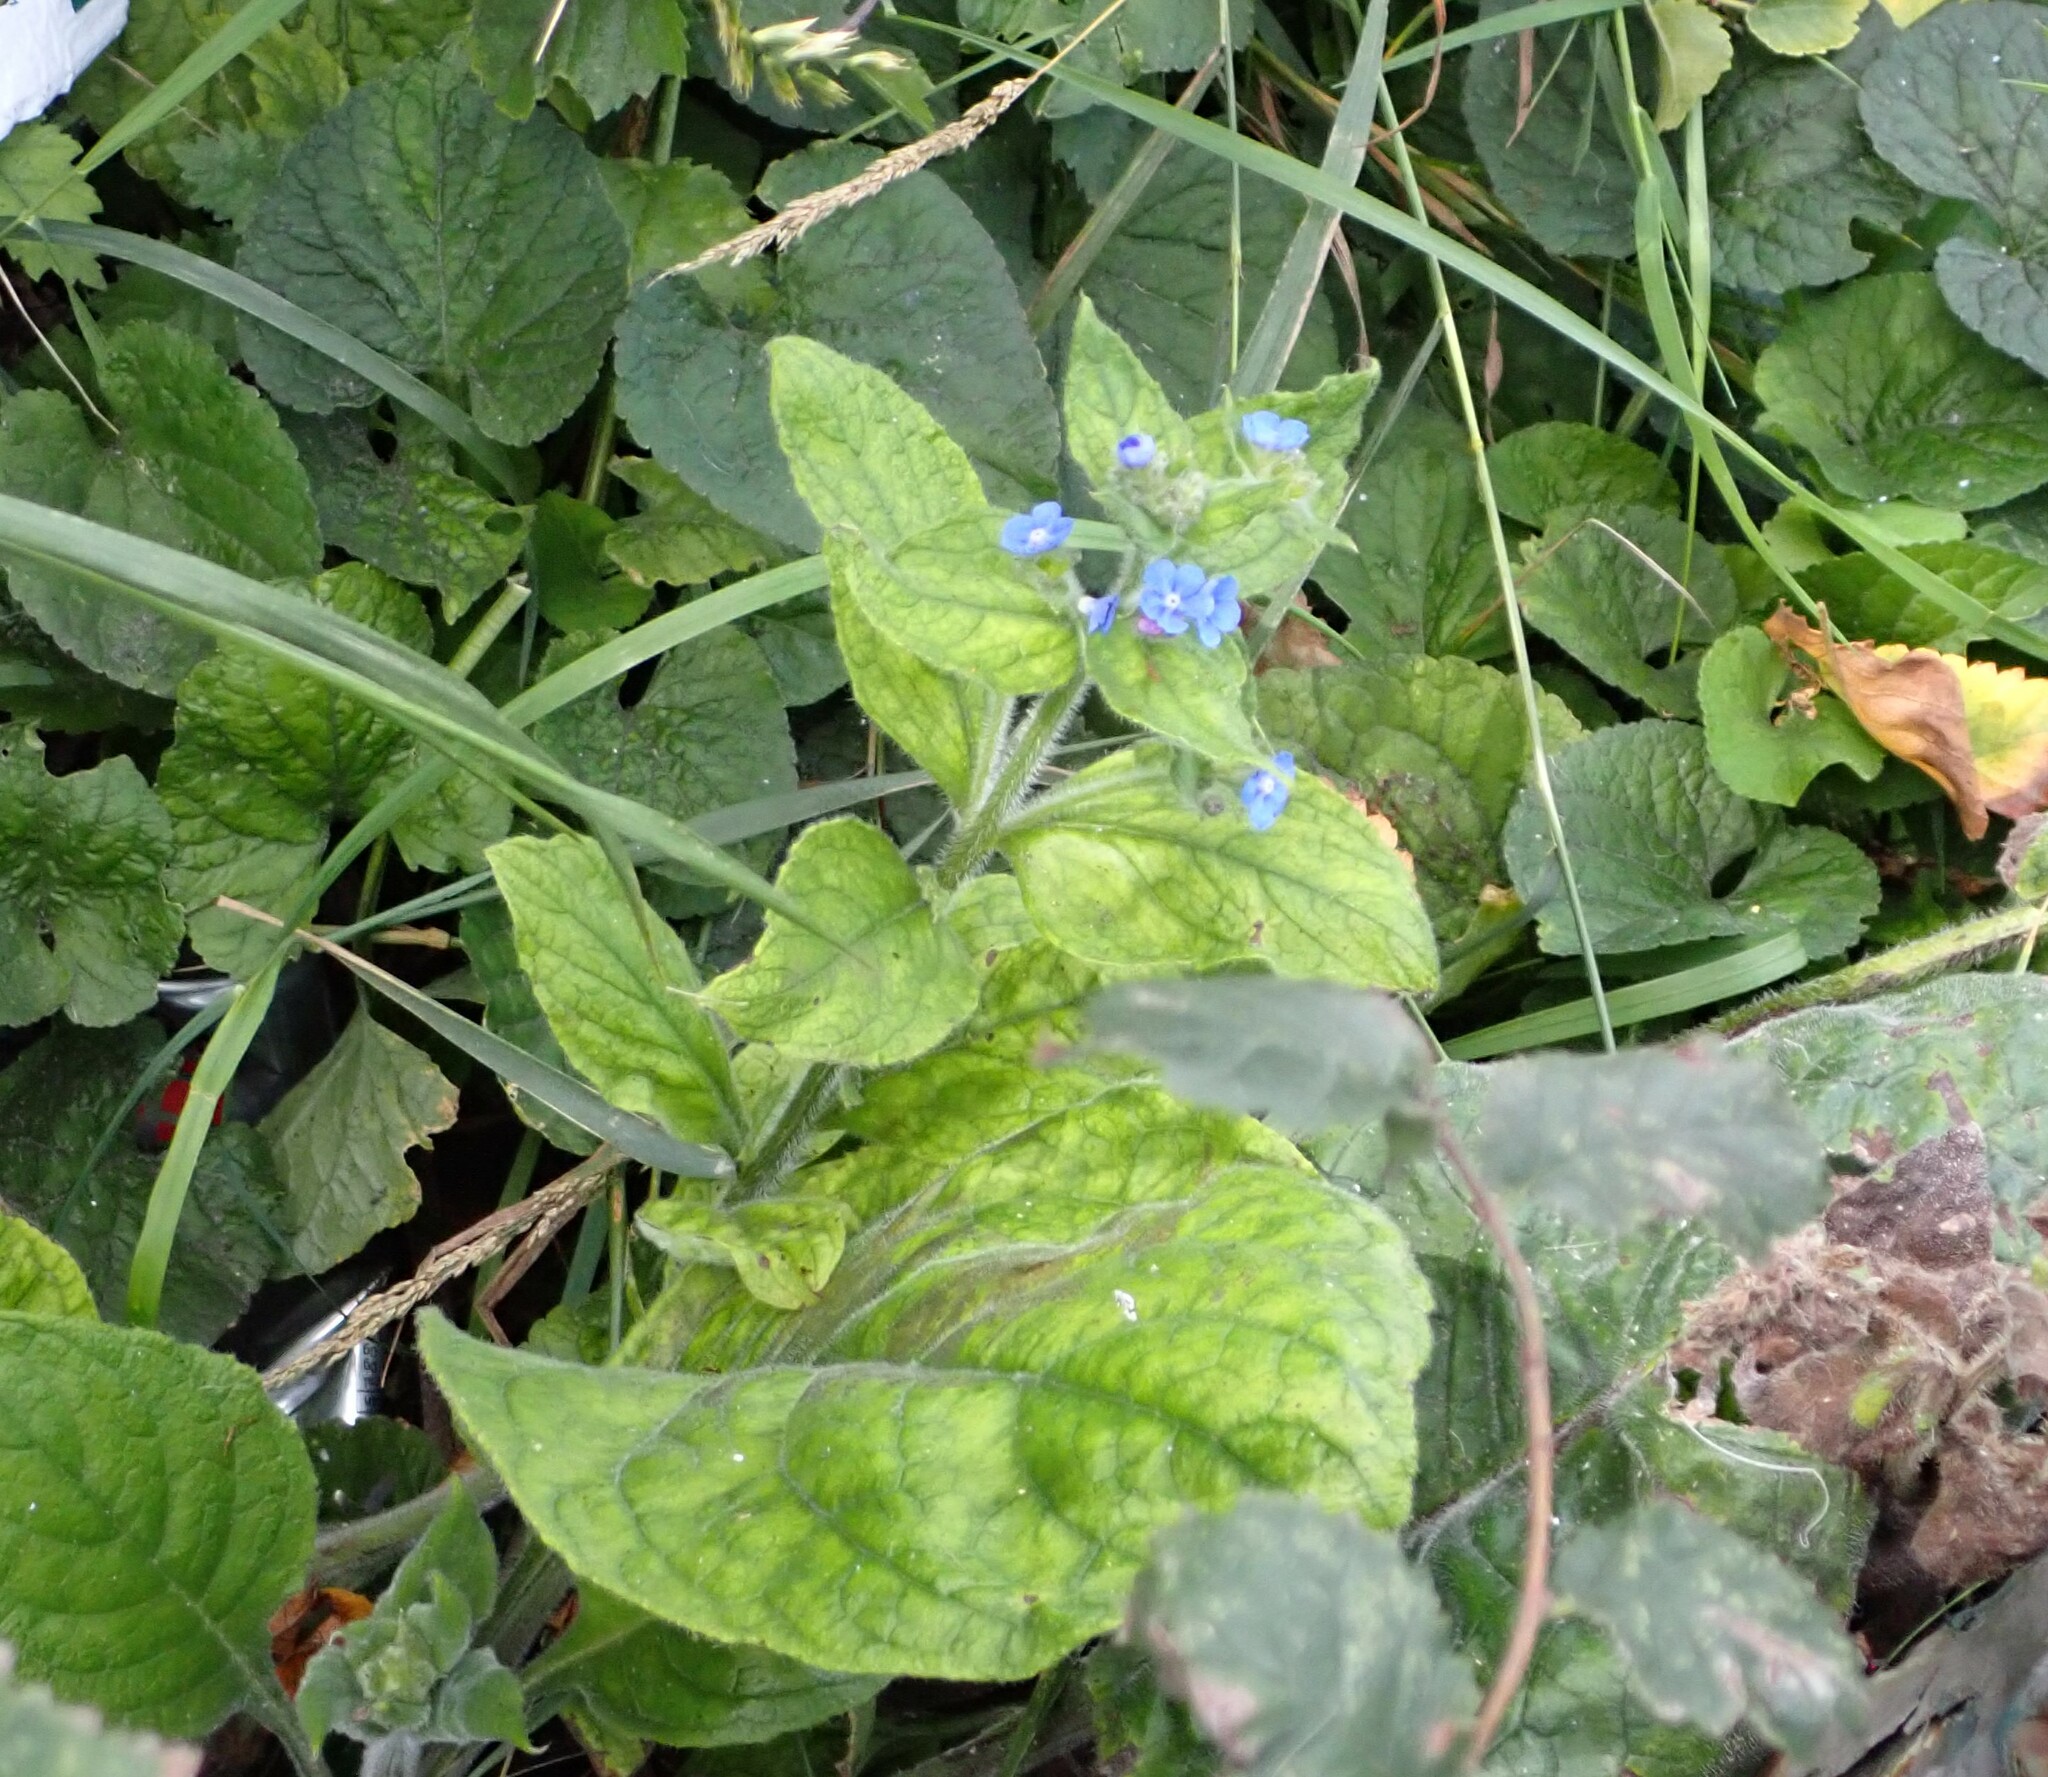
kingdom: Plantae
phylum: Tracheophyta
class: Magnoliopsida
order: Boraginales
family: Boraginaceae
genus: Pentaglottis
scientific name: Pentaglottis sempervirens
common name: Green alkanet
